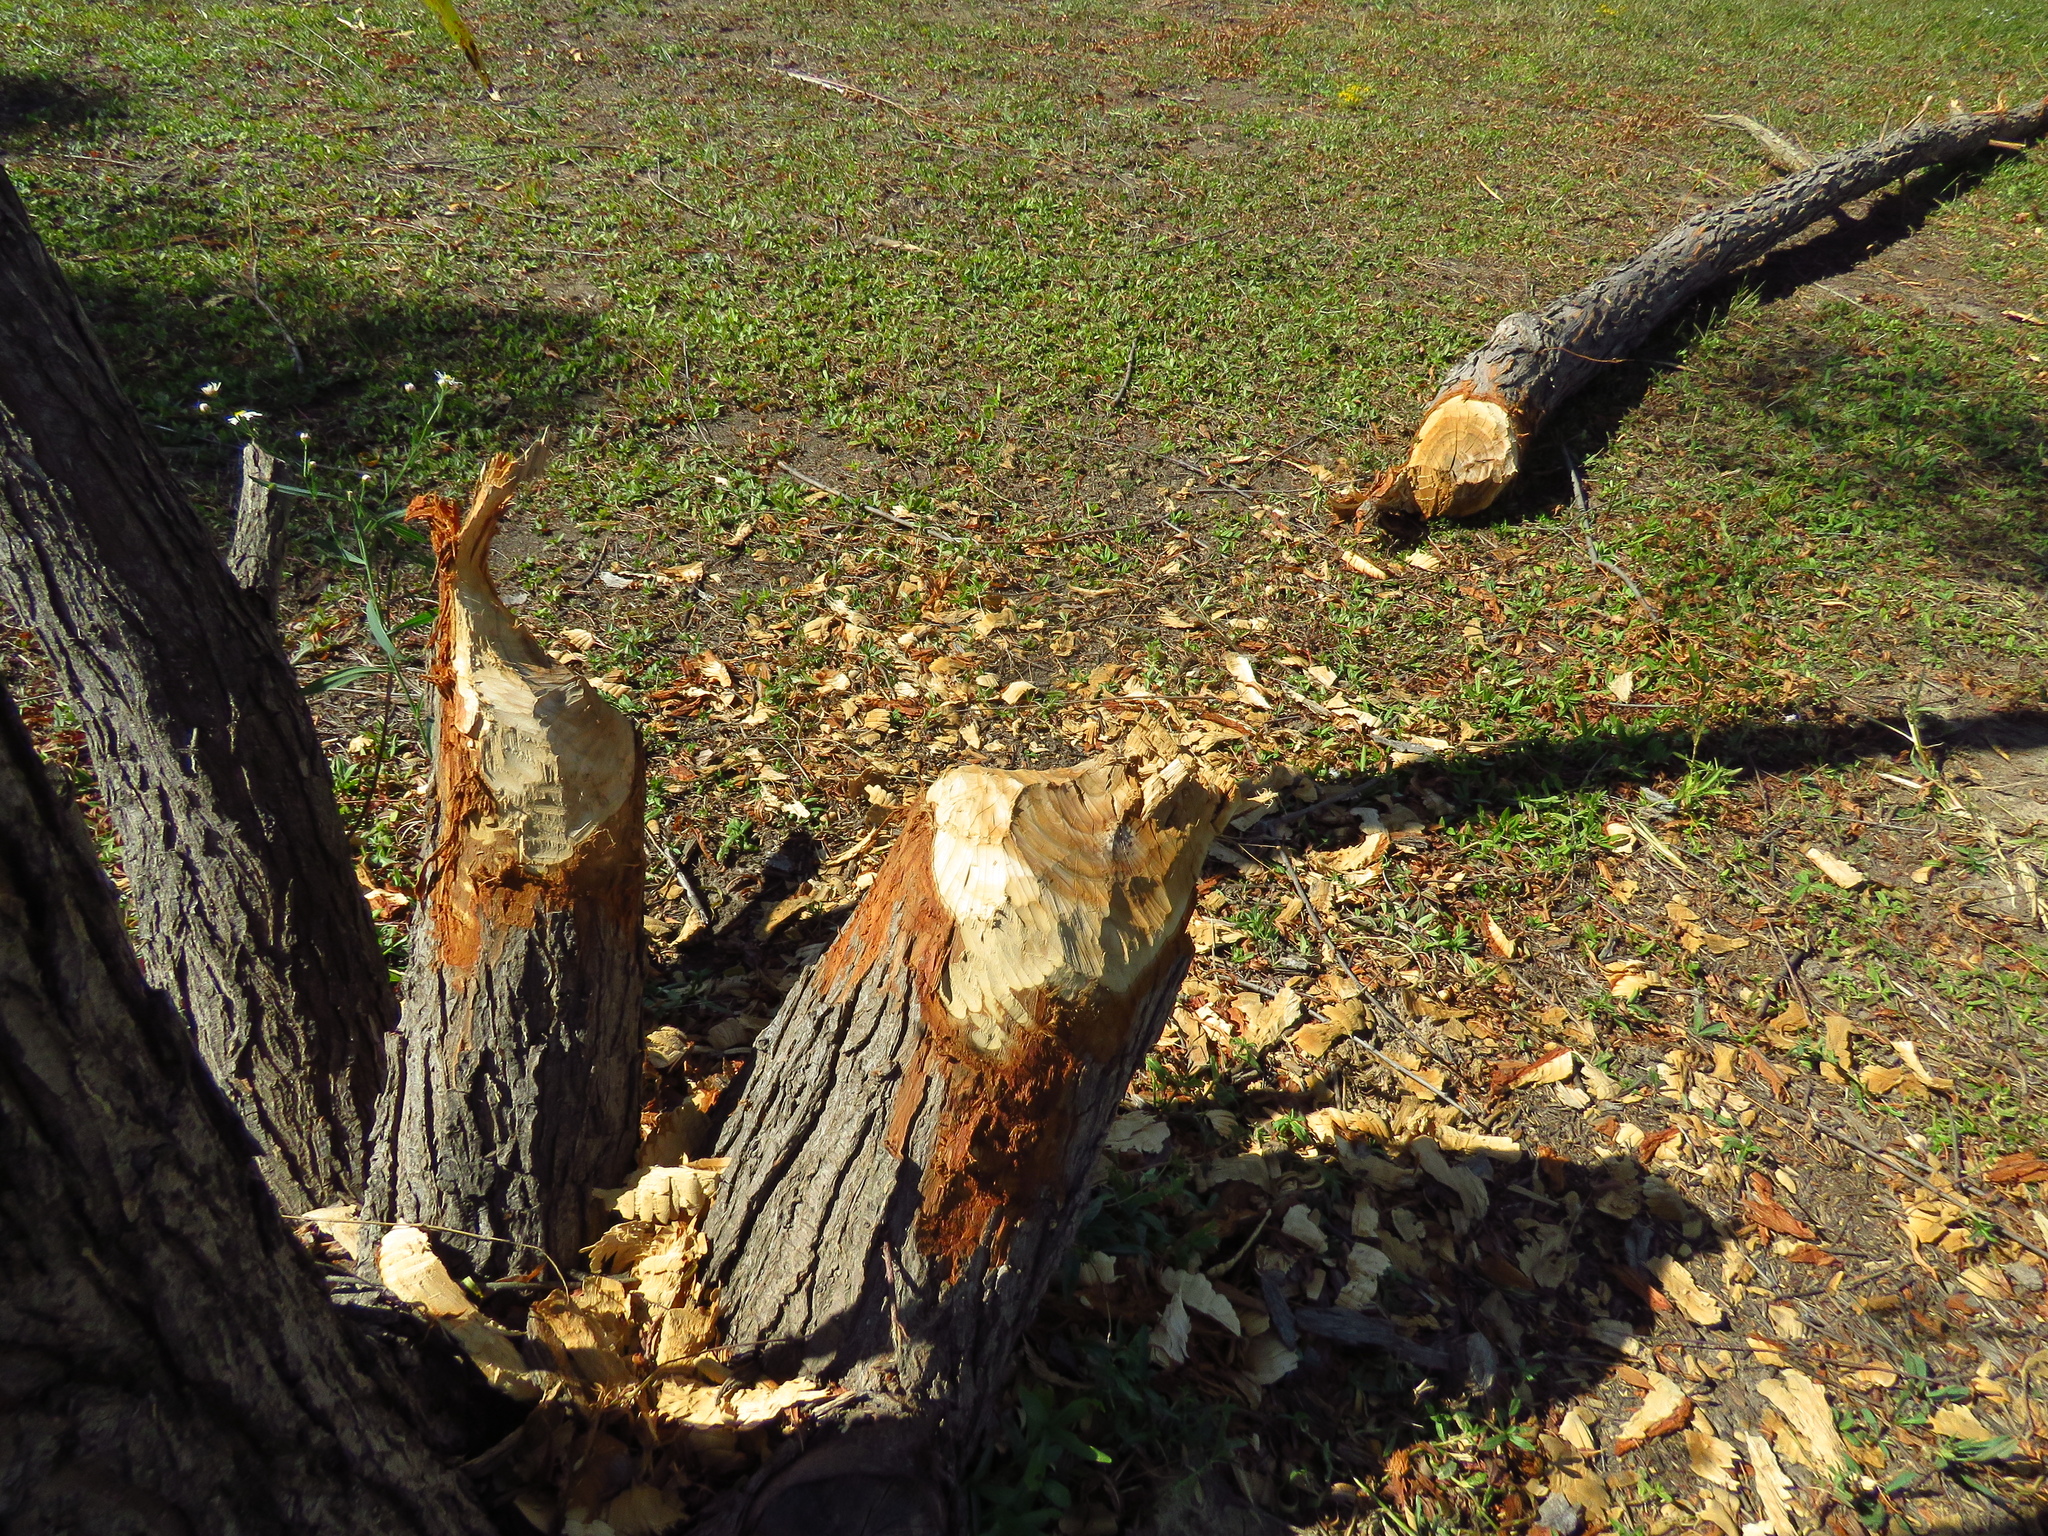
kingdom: Animalia
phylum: Chordata
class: Mammalia
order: Rodentia
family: Castoridae
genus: Castor
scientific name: Castor canadensis
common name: American beaver
